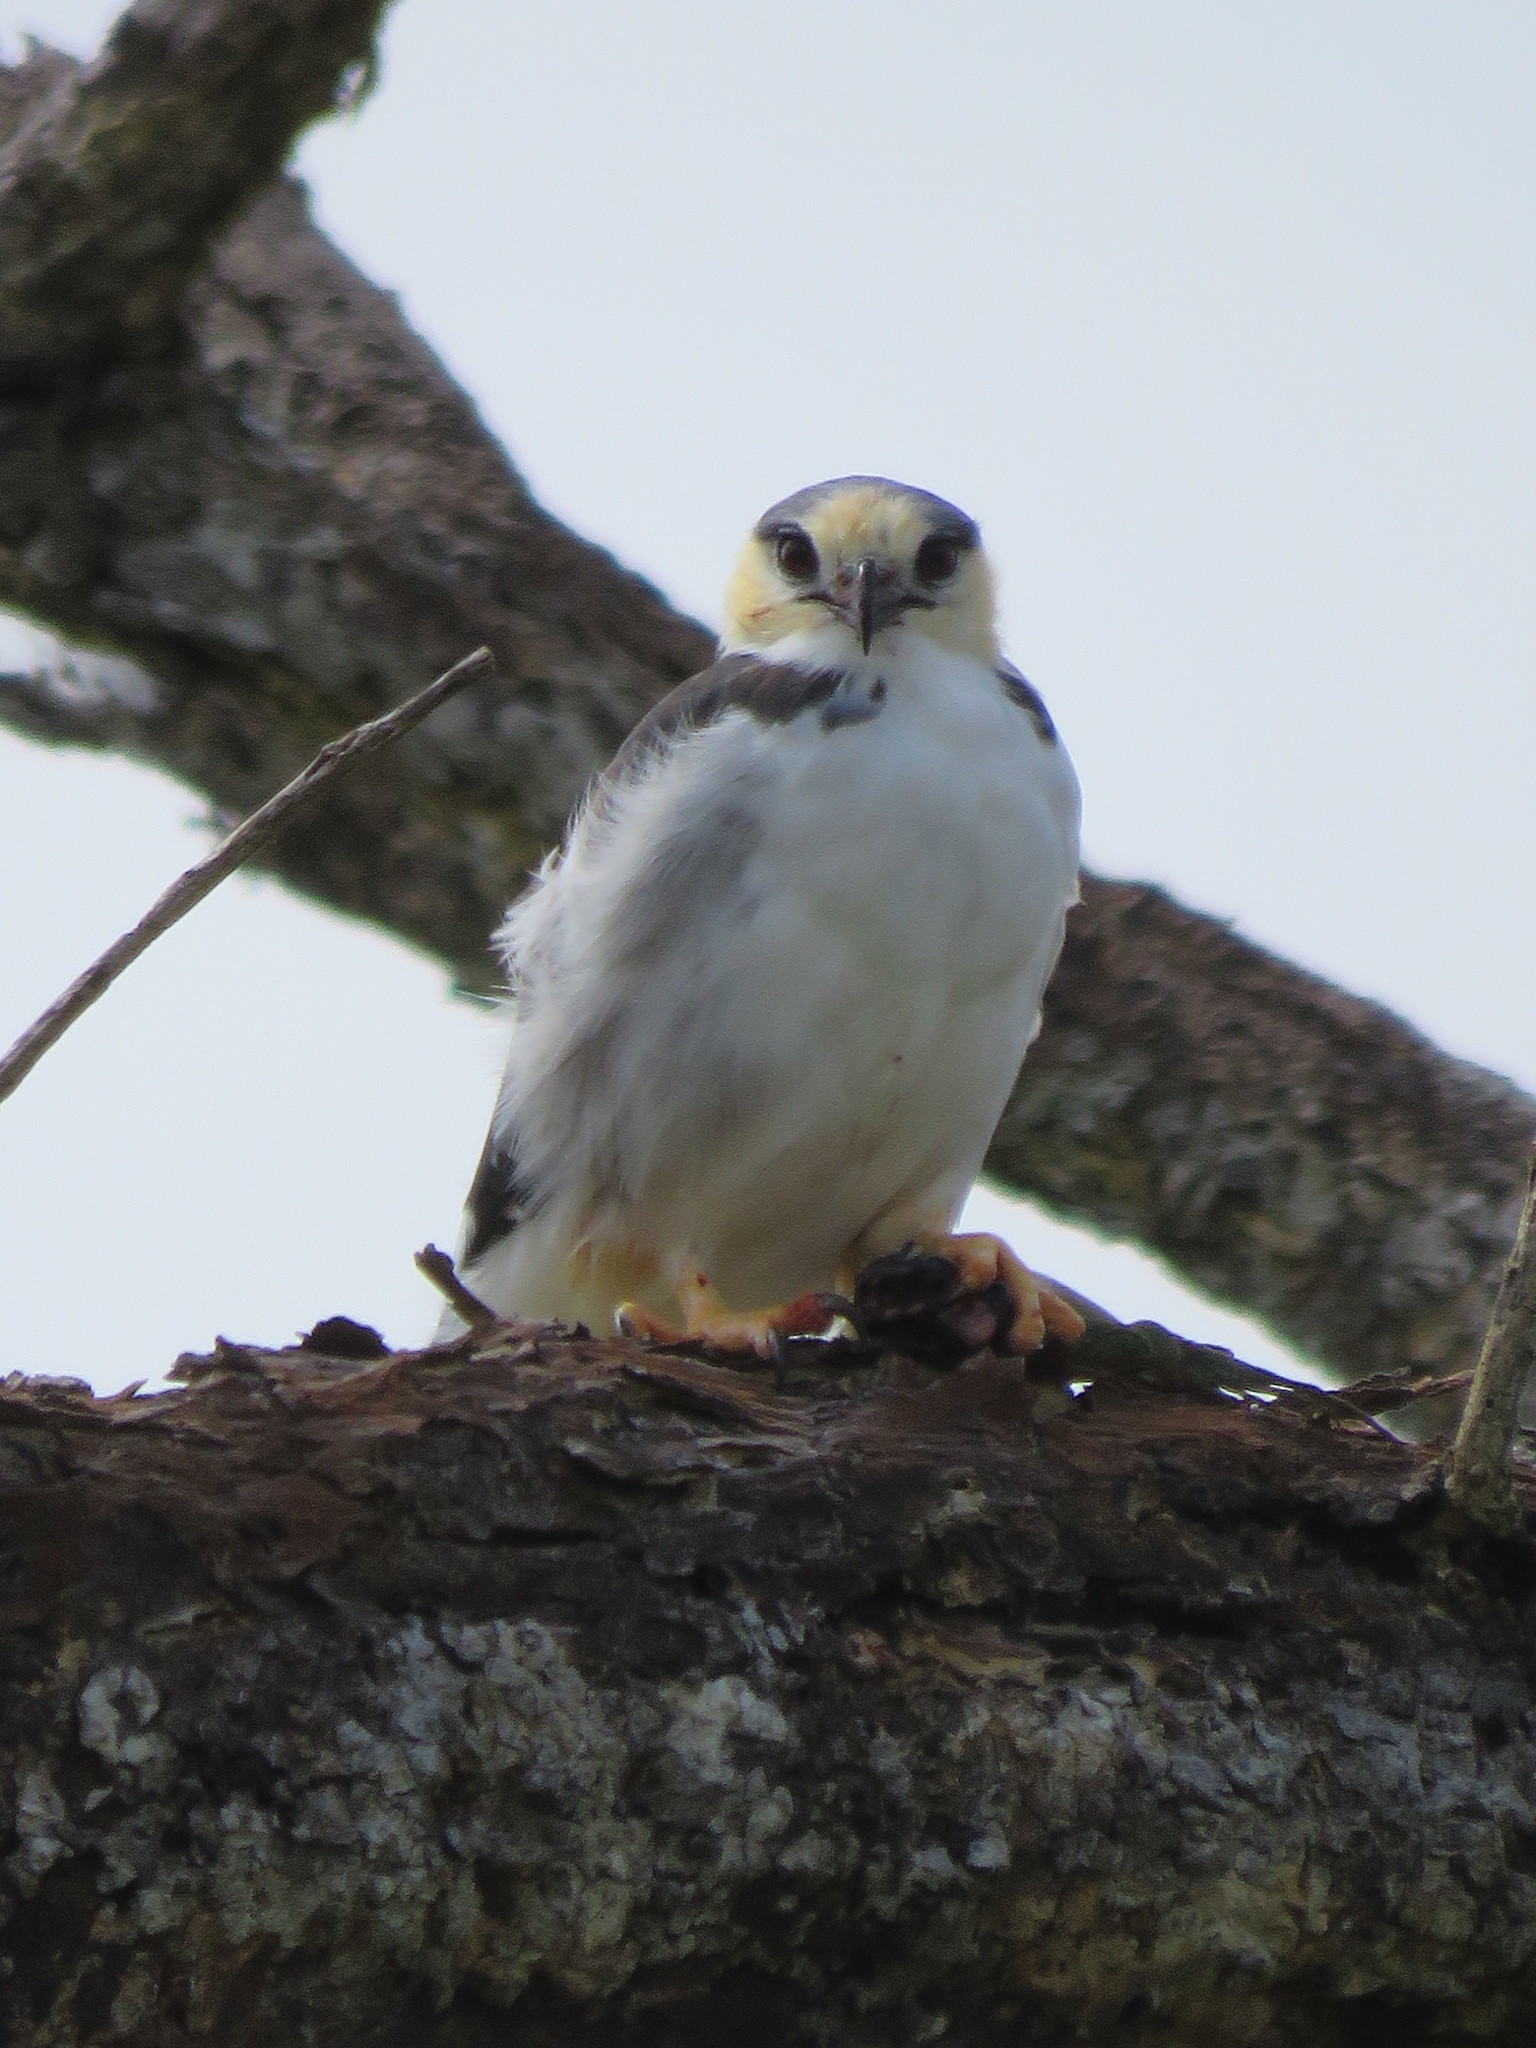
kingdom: Animalia
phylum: Chordata
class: Aves
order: Accipitriformes
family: Accipitridae
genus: Gampsonyx
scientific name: Gampsonyx swainsonii
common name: Pearl kite
